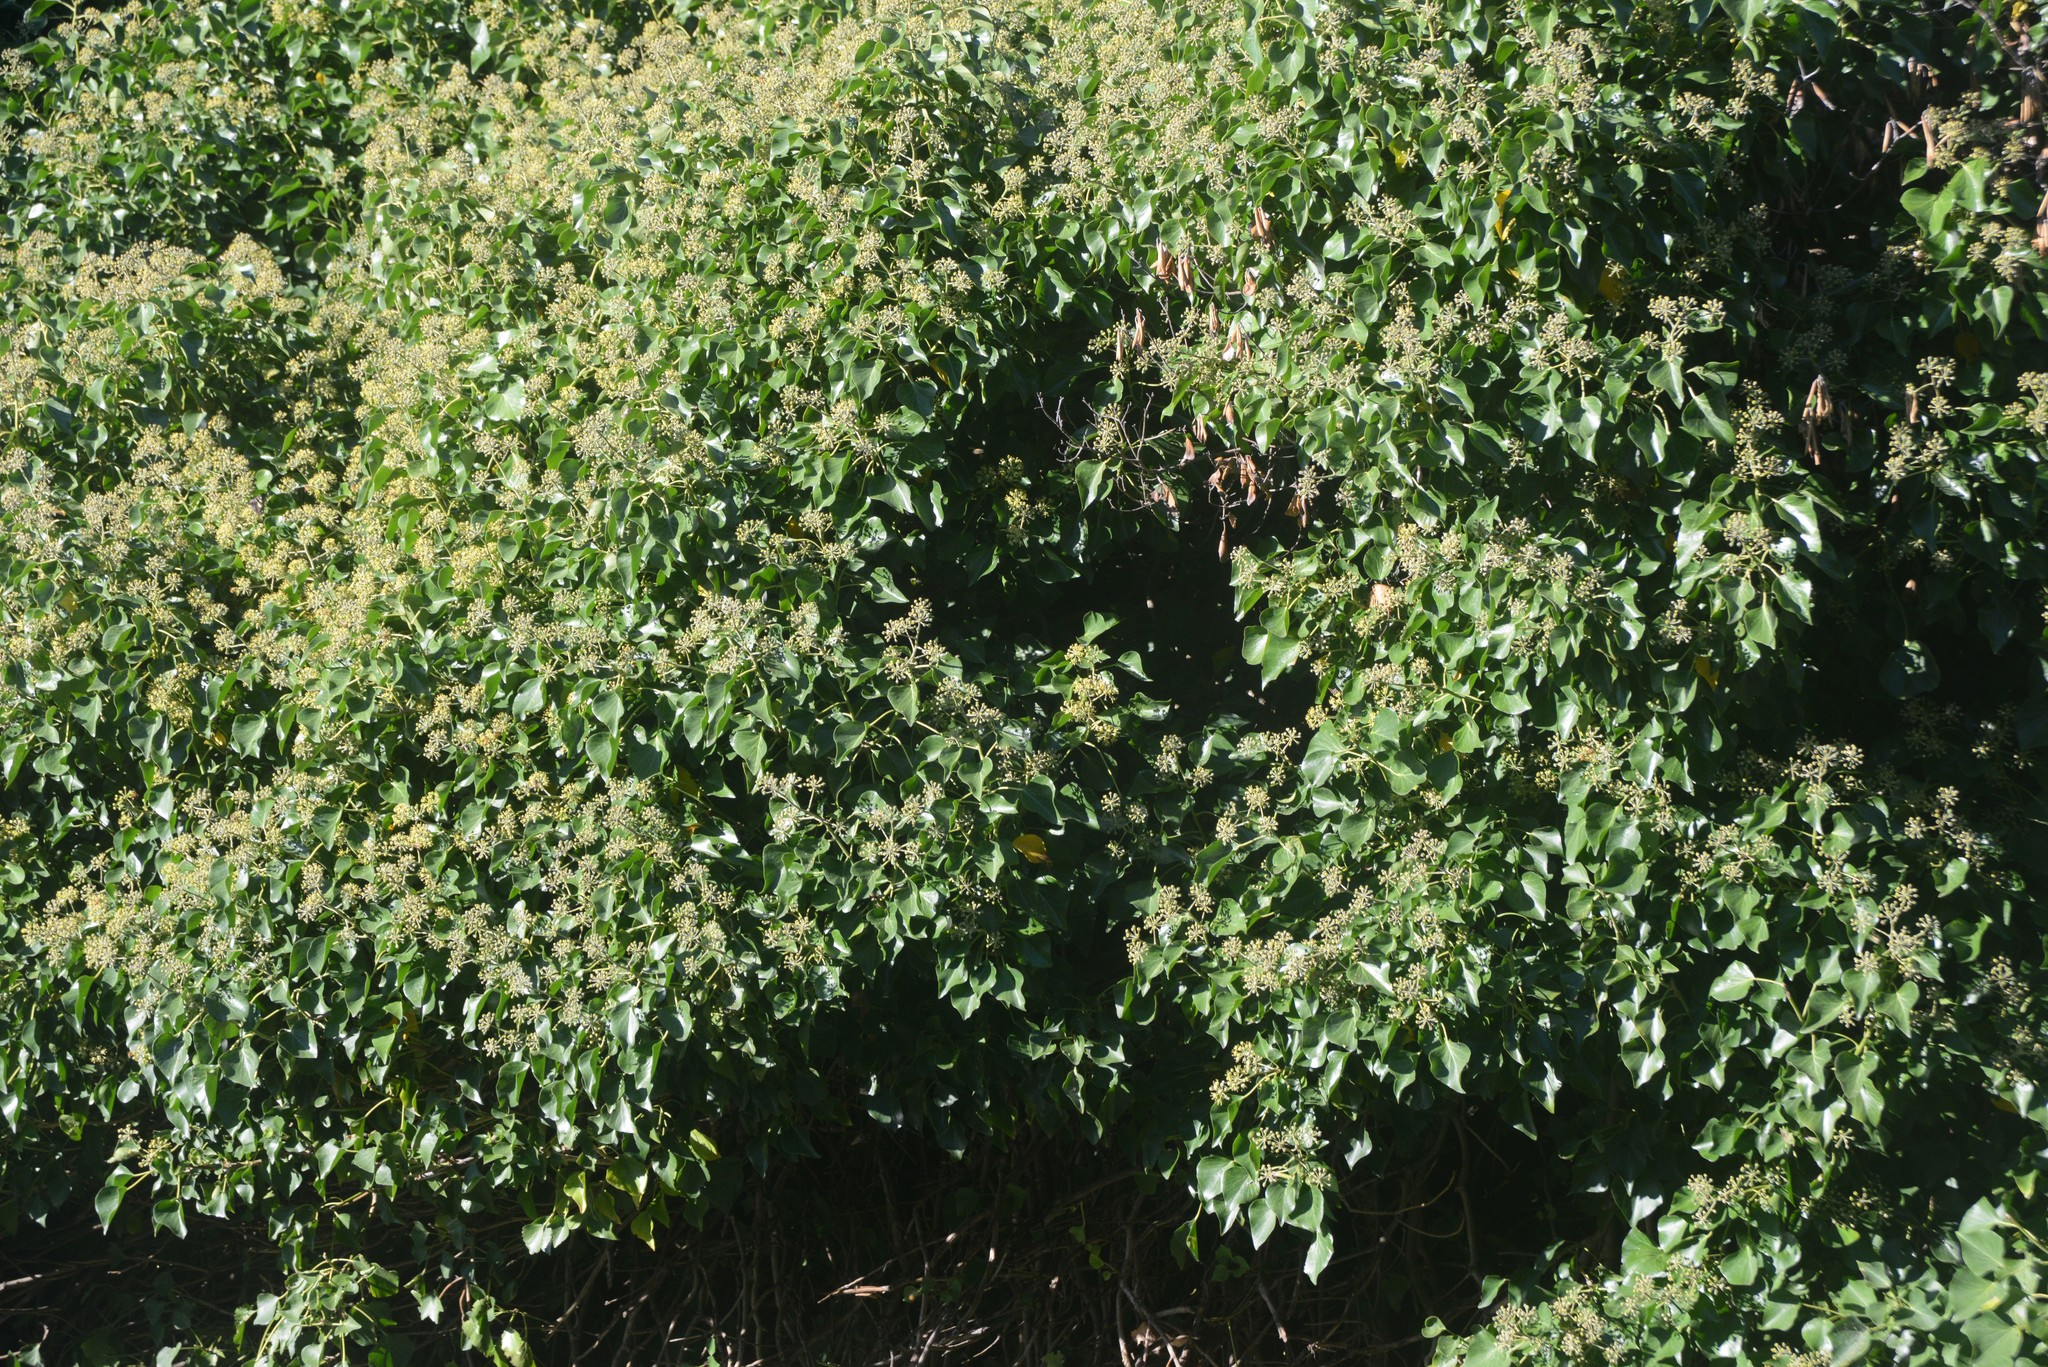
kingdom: Plantae
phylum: Tracheophyta
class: Magnoliopsida
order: Apiales
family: Araliaceae
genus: Hedera
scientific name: Hedera helix
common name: Ivy
